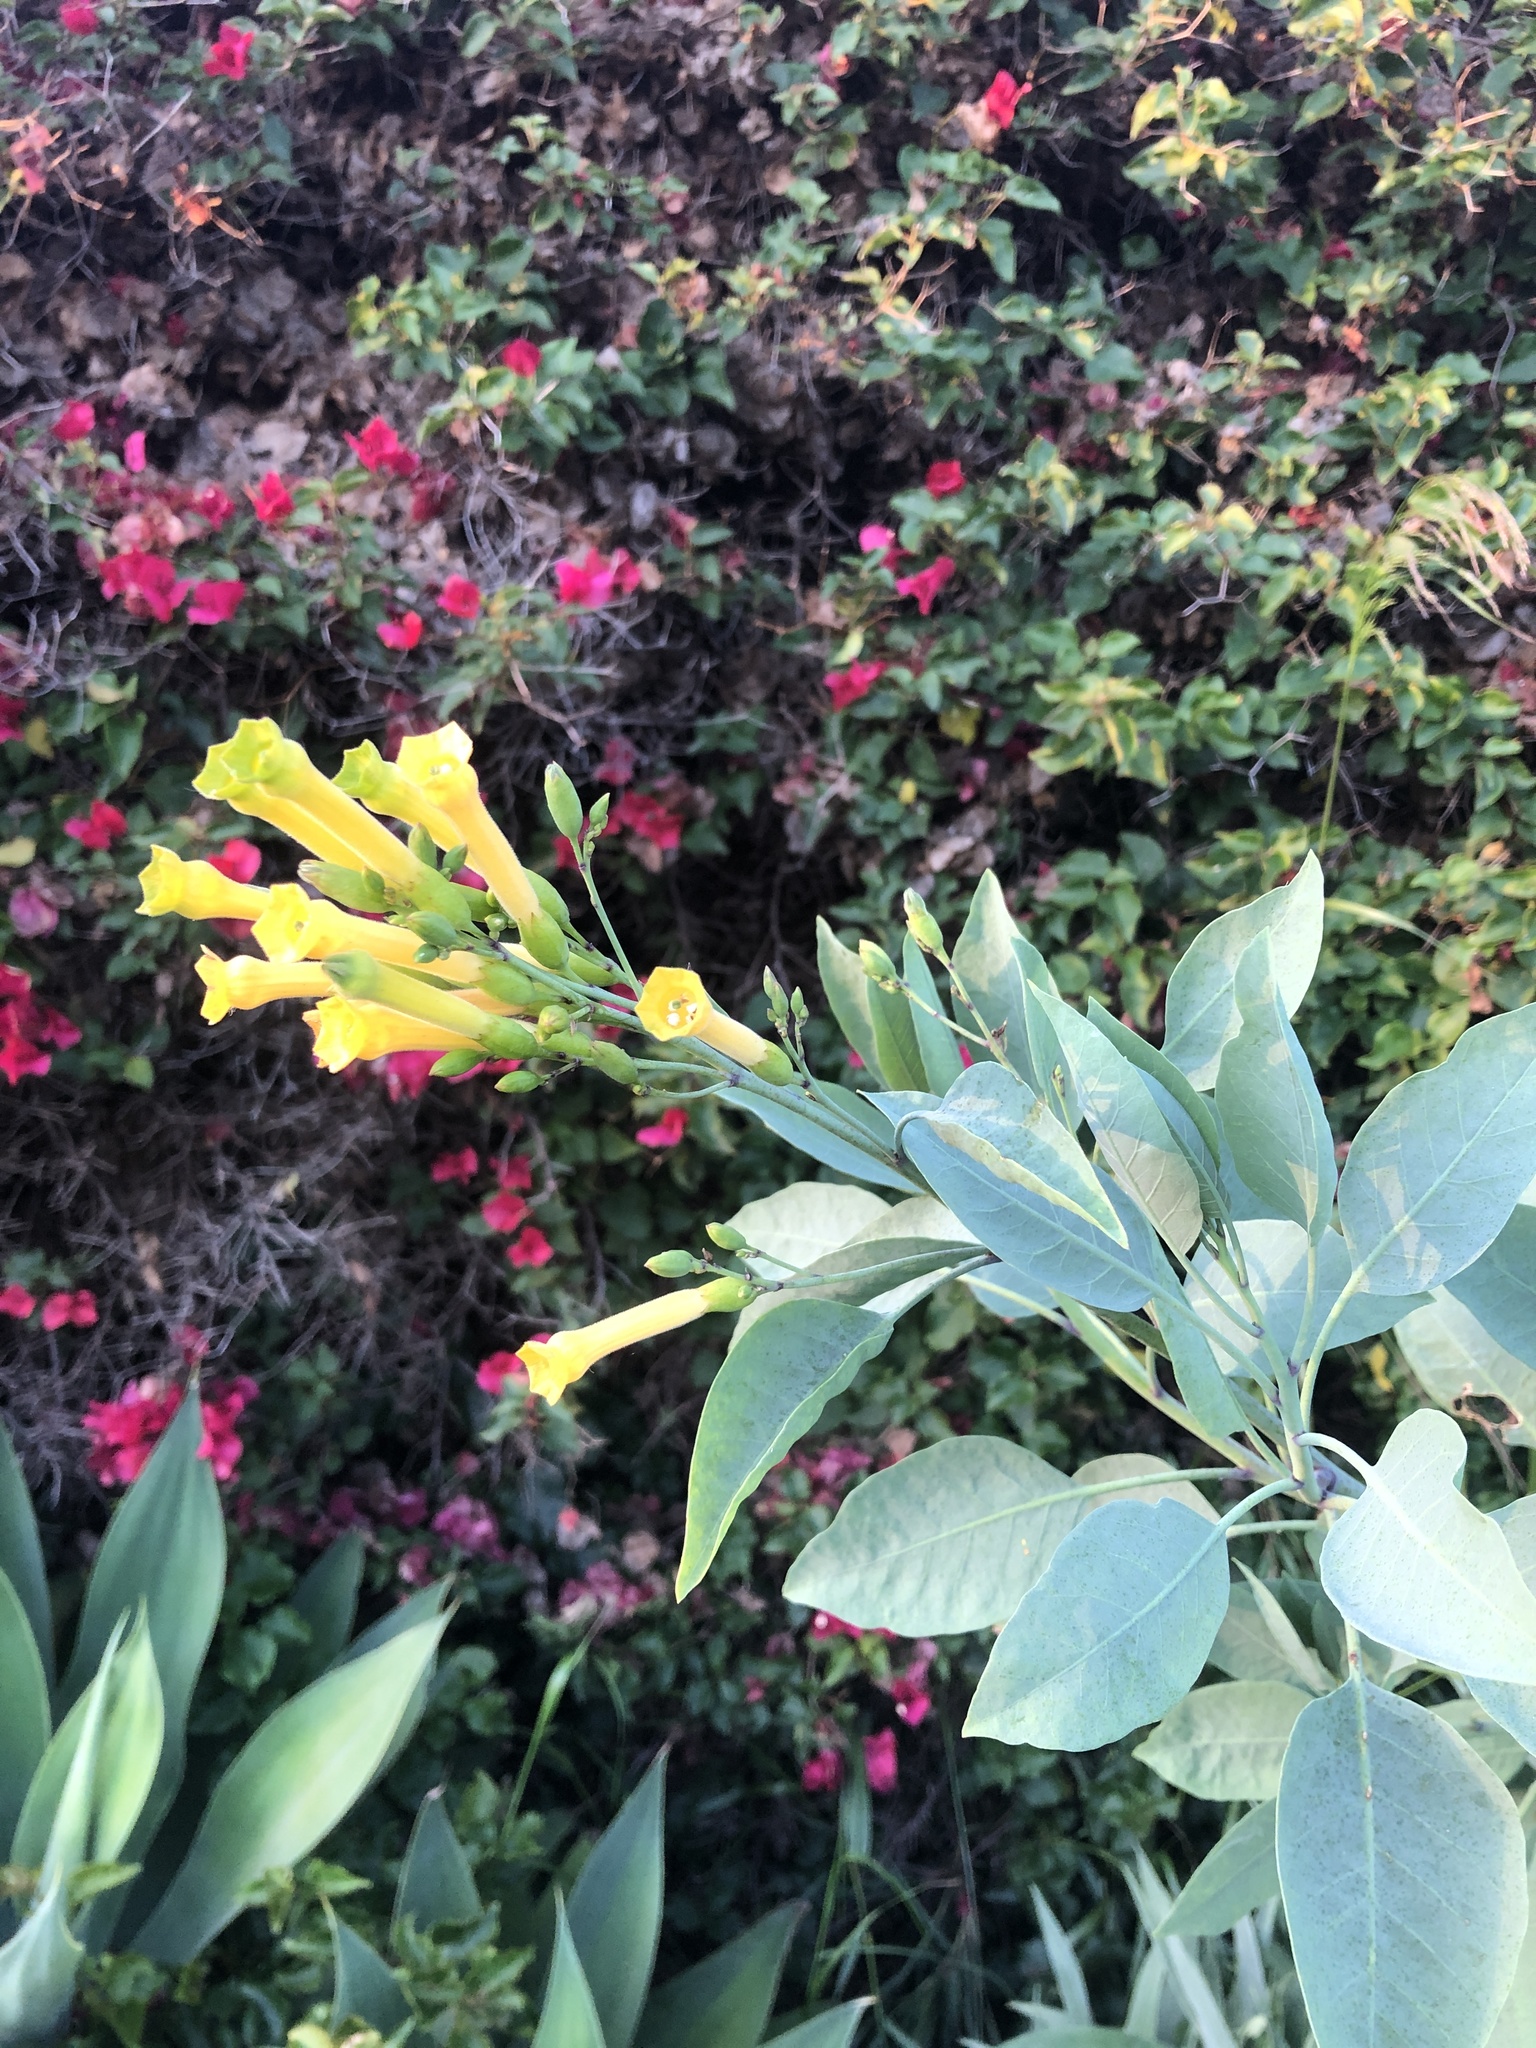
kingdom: Plantae
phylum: Tracheophyta
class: Magnoliopsida
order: Solanales
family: Solanaceae
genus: Nicotiana
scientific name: Nicotiana glauca
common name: Tree tobacco
